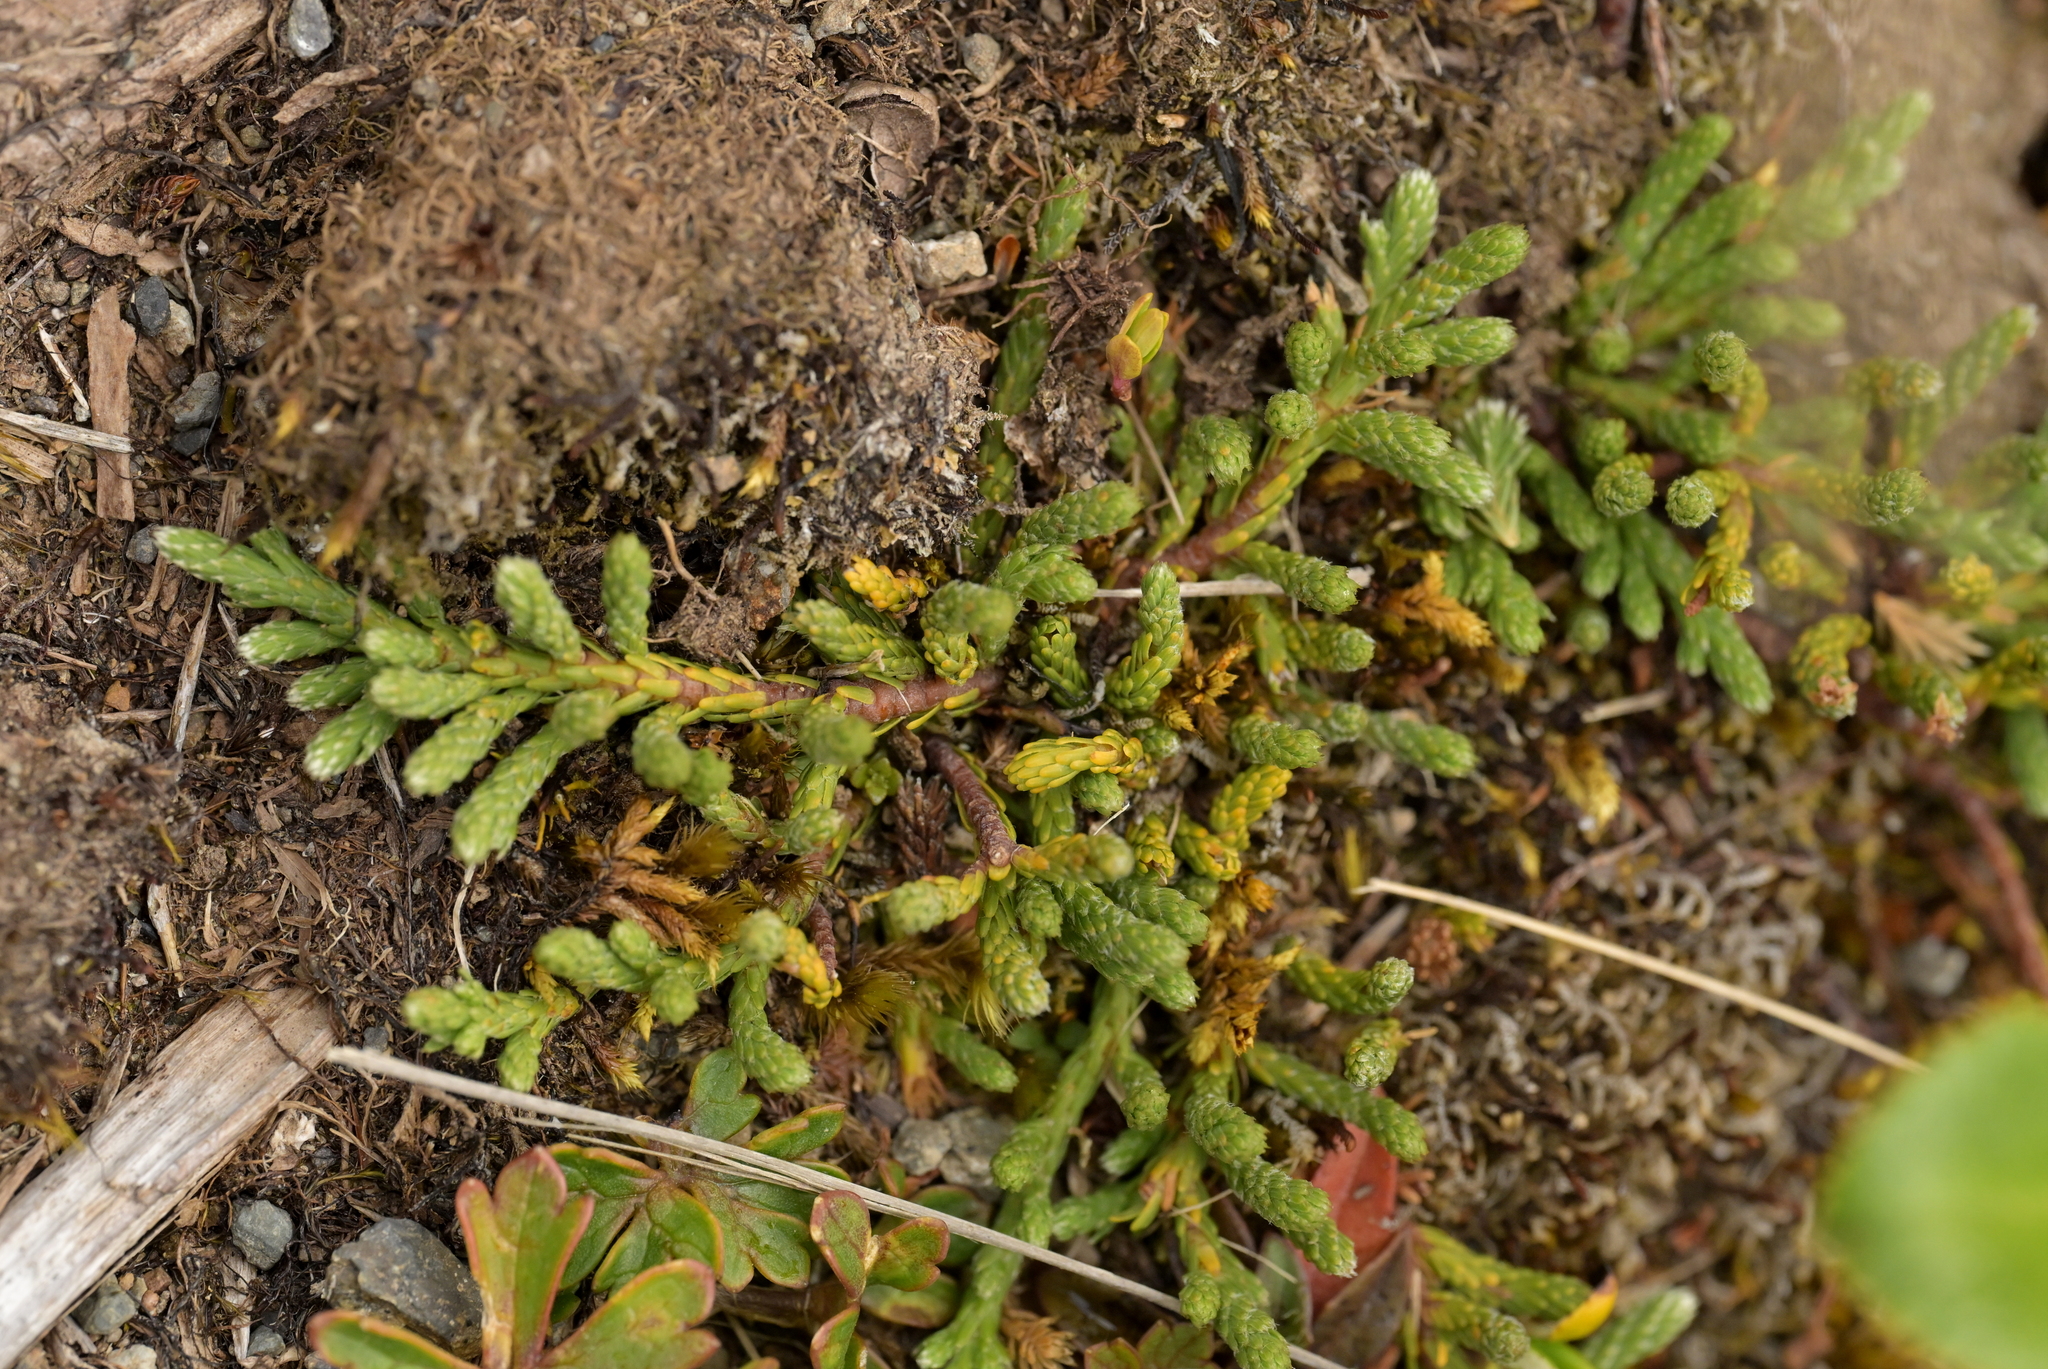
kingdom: Plantae
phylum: Tracheophyta
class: Magnoliopsida
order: Malvales
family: Thymelaeaceae
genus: Kelleria
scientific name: Kelleria dieffenbachii
